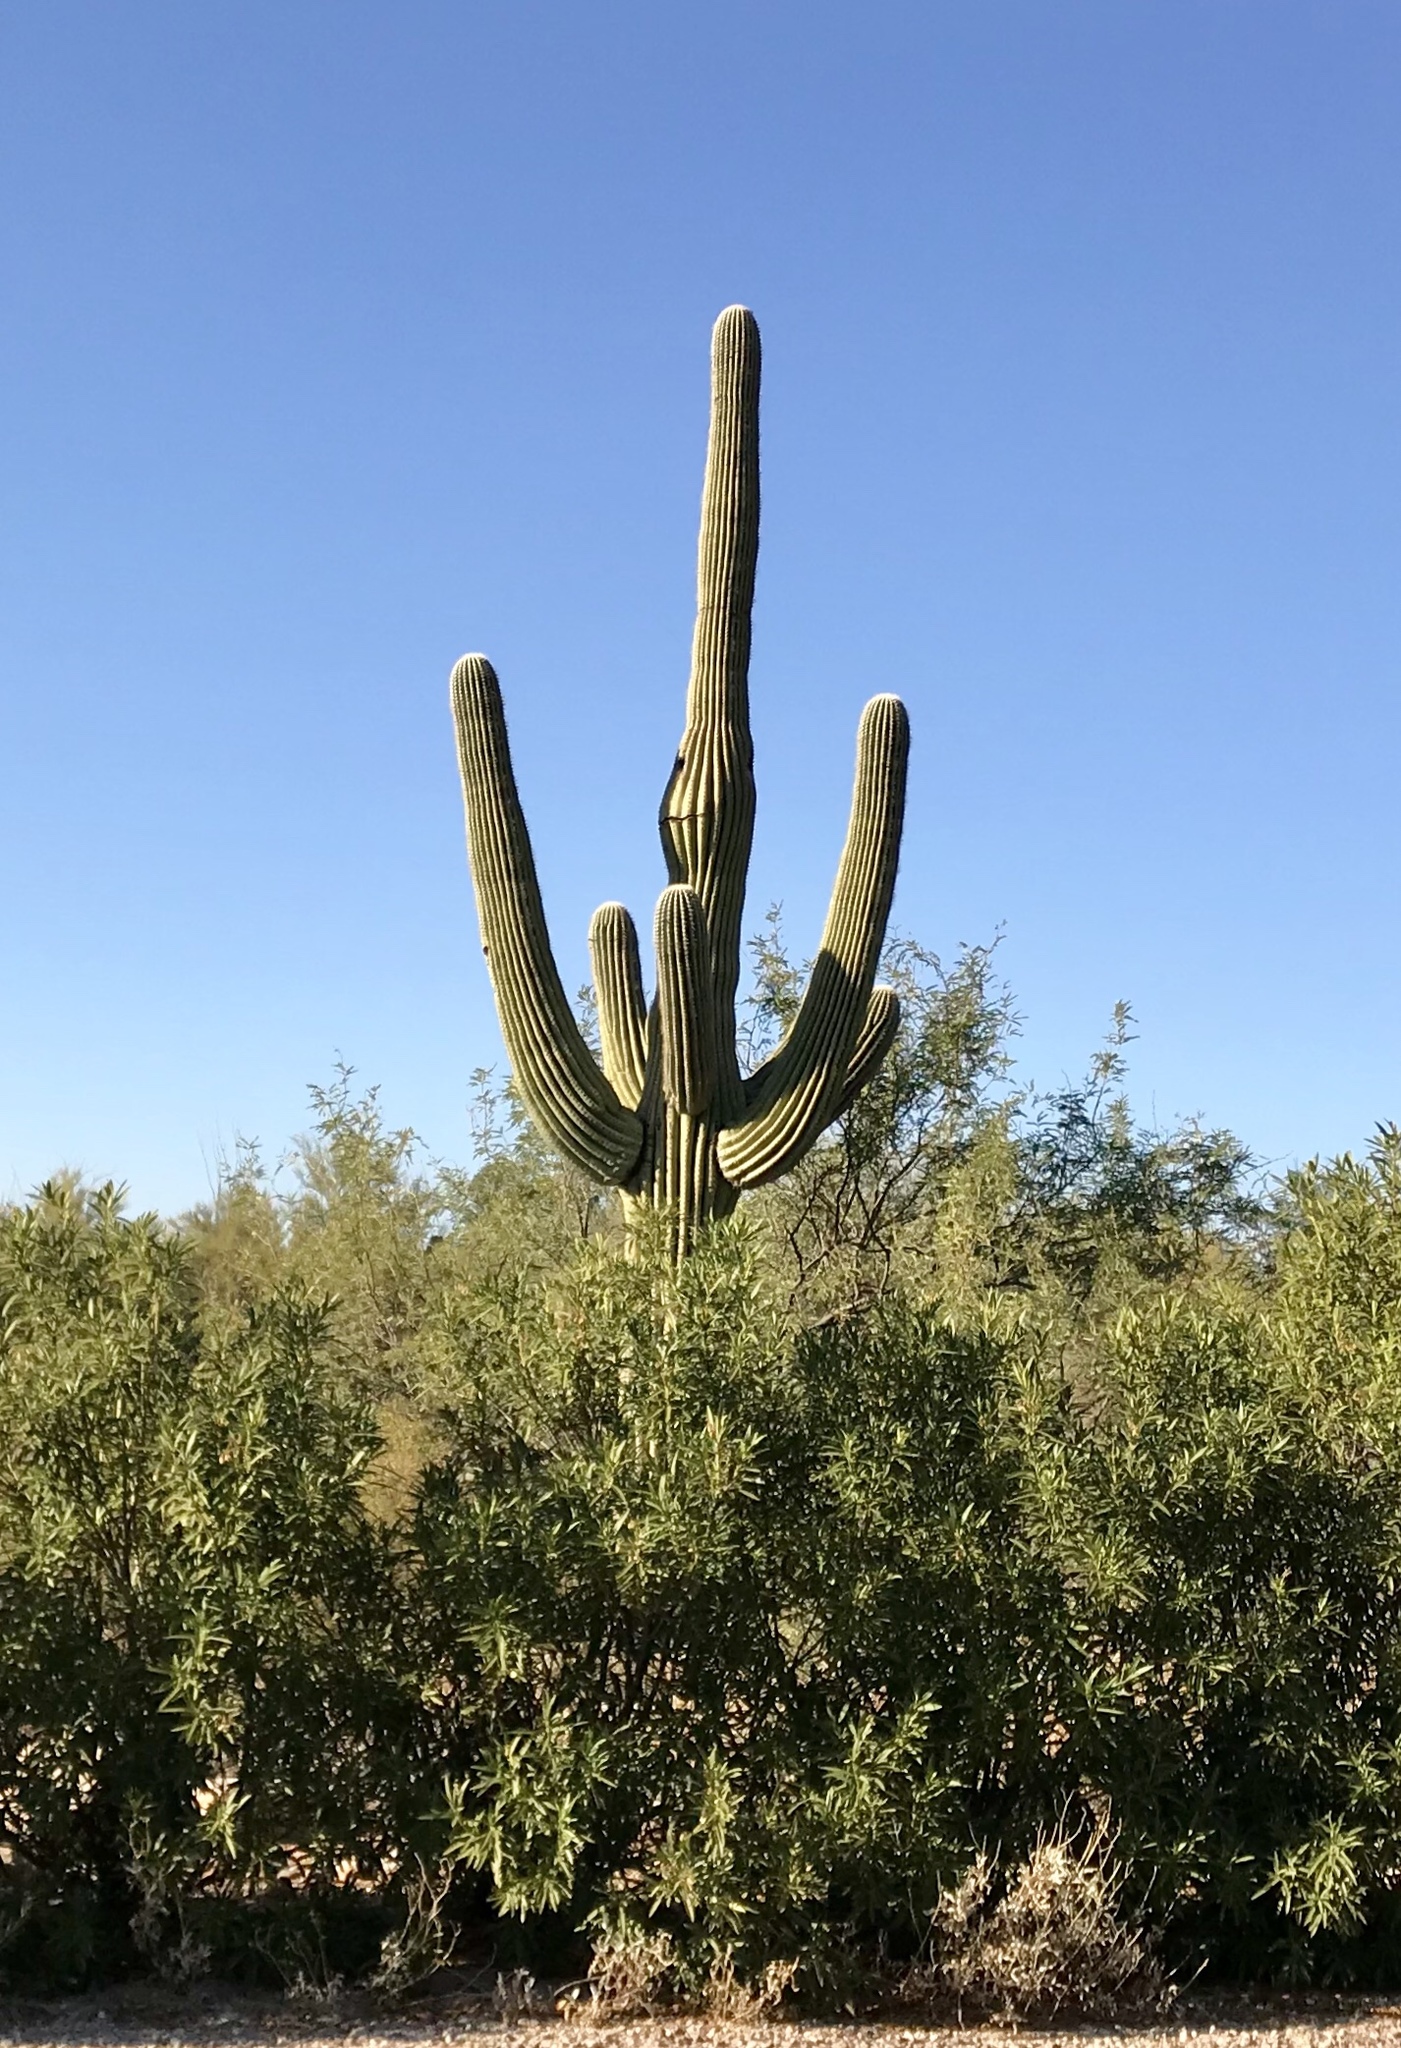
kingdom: Plantae
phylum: Tracheophyta
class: Magnoliopsida
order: Caryophyllales
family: Cactaceae
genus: Carnegiea
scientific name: Carnegiea gigantea
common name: Saguaro
